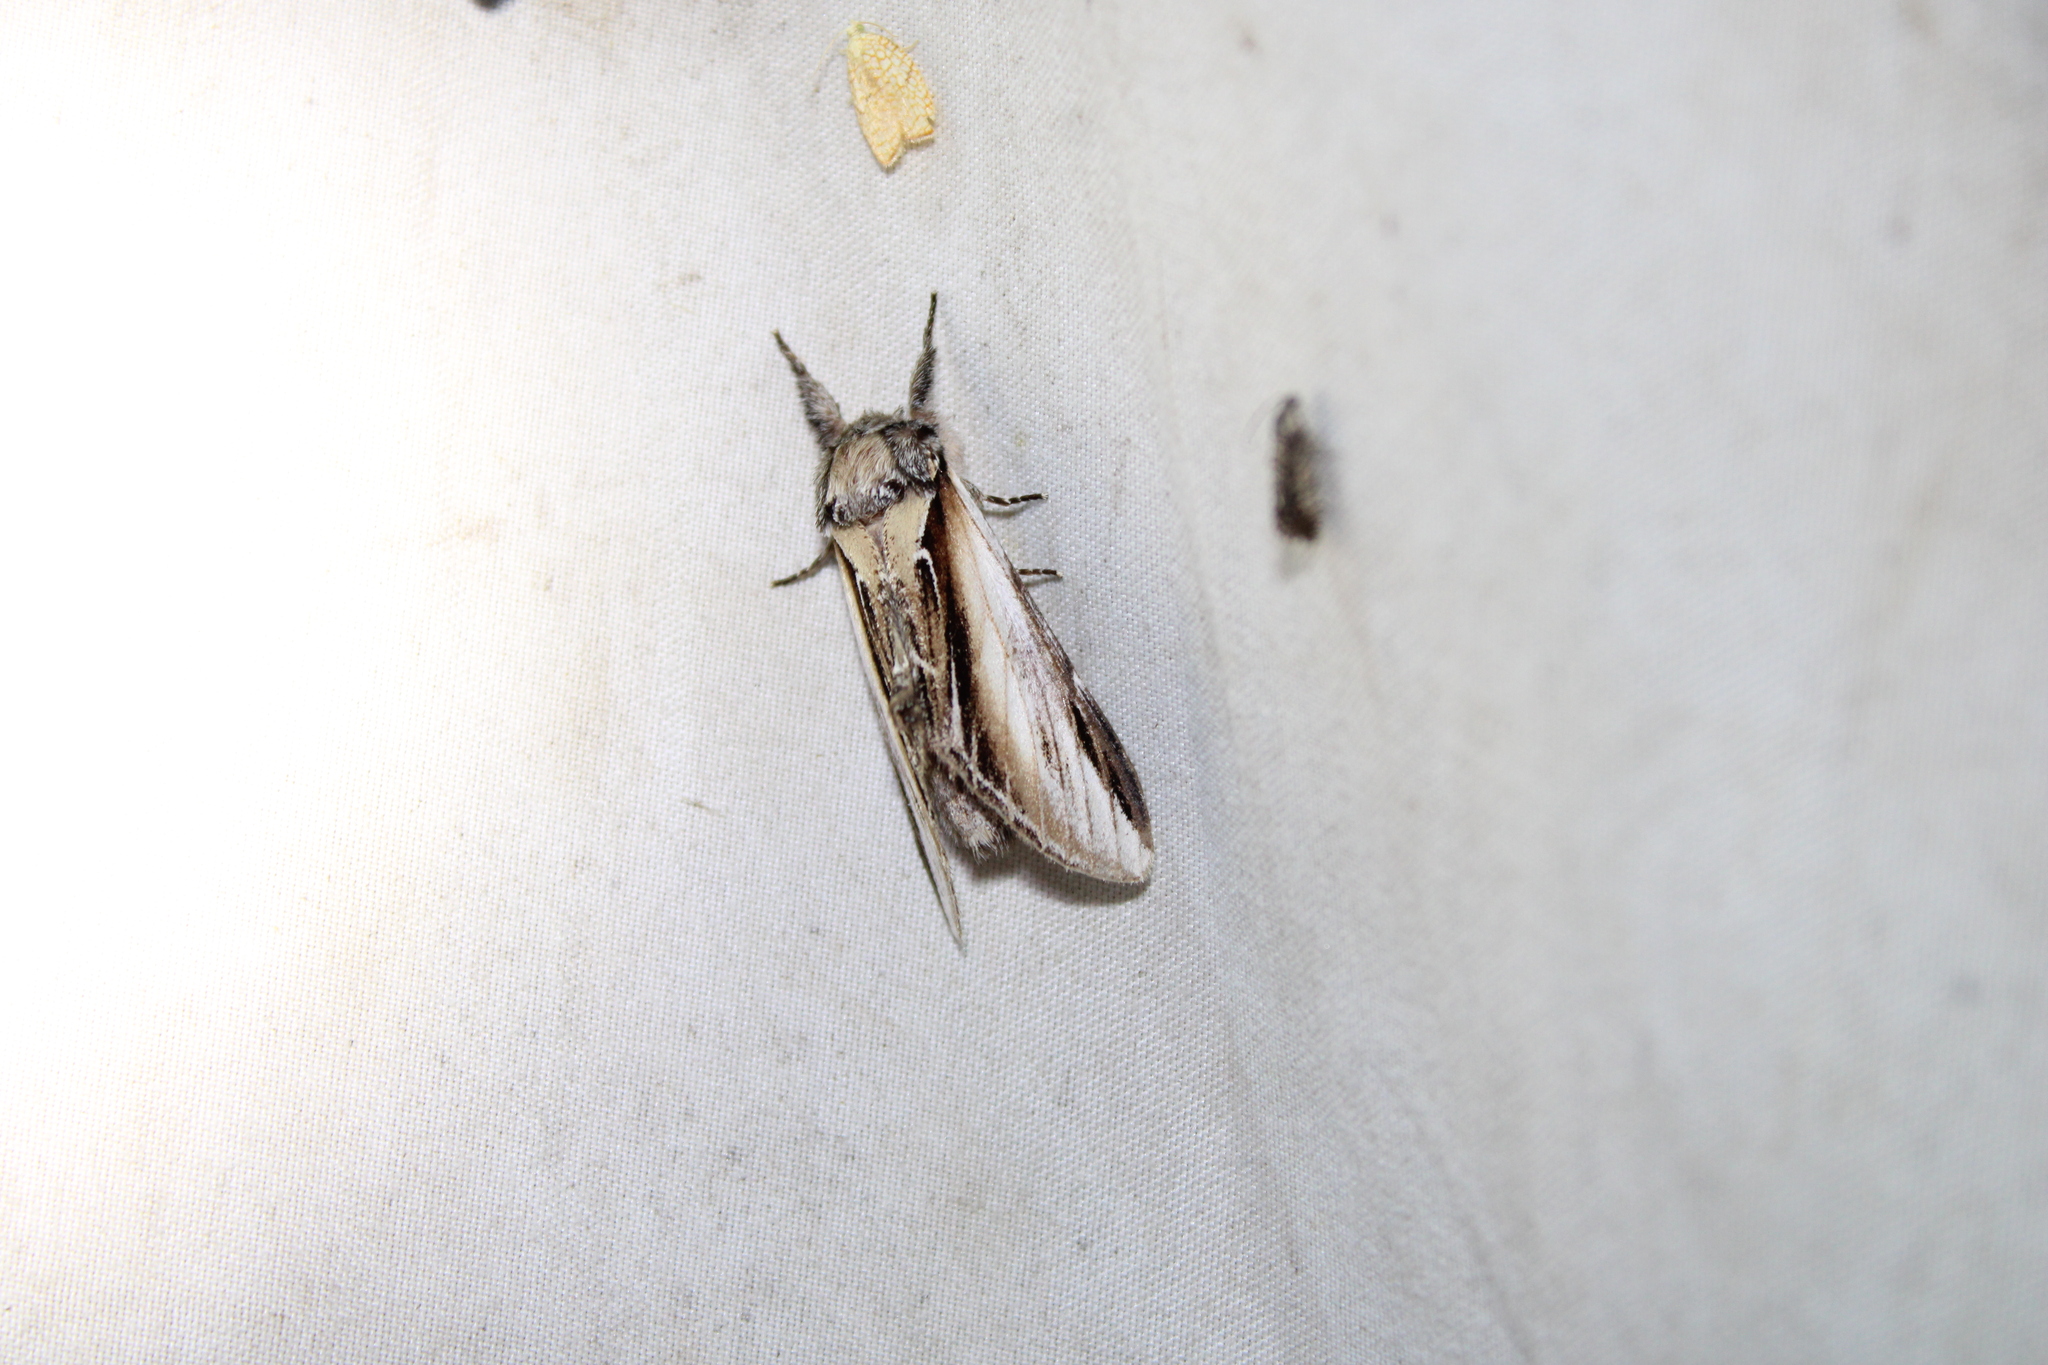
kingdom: Animalia
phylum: Arthropoda
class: Insecta
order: Lepidoptera
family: Notodontidae
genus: Pheosia
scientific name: Pheosia rimosa
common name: Black-rimmed prominent
